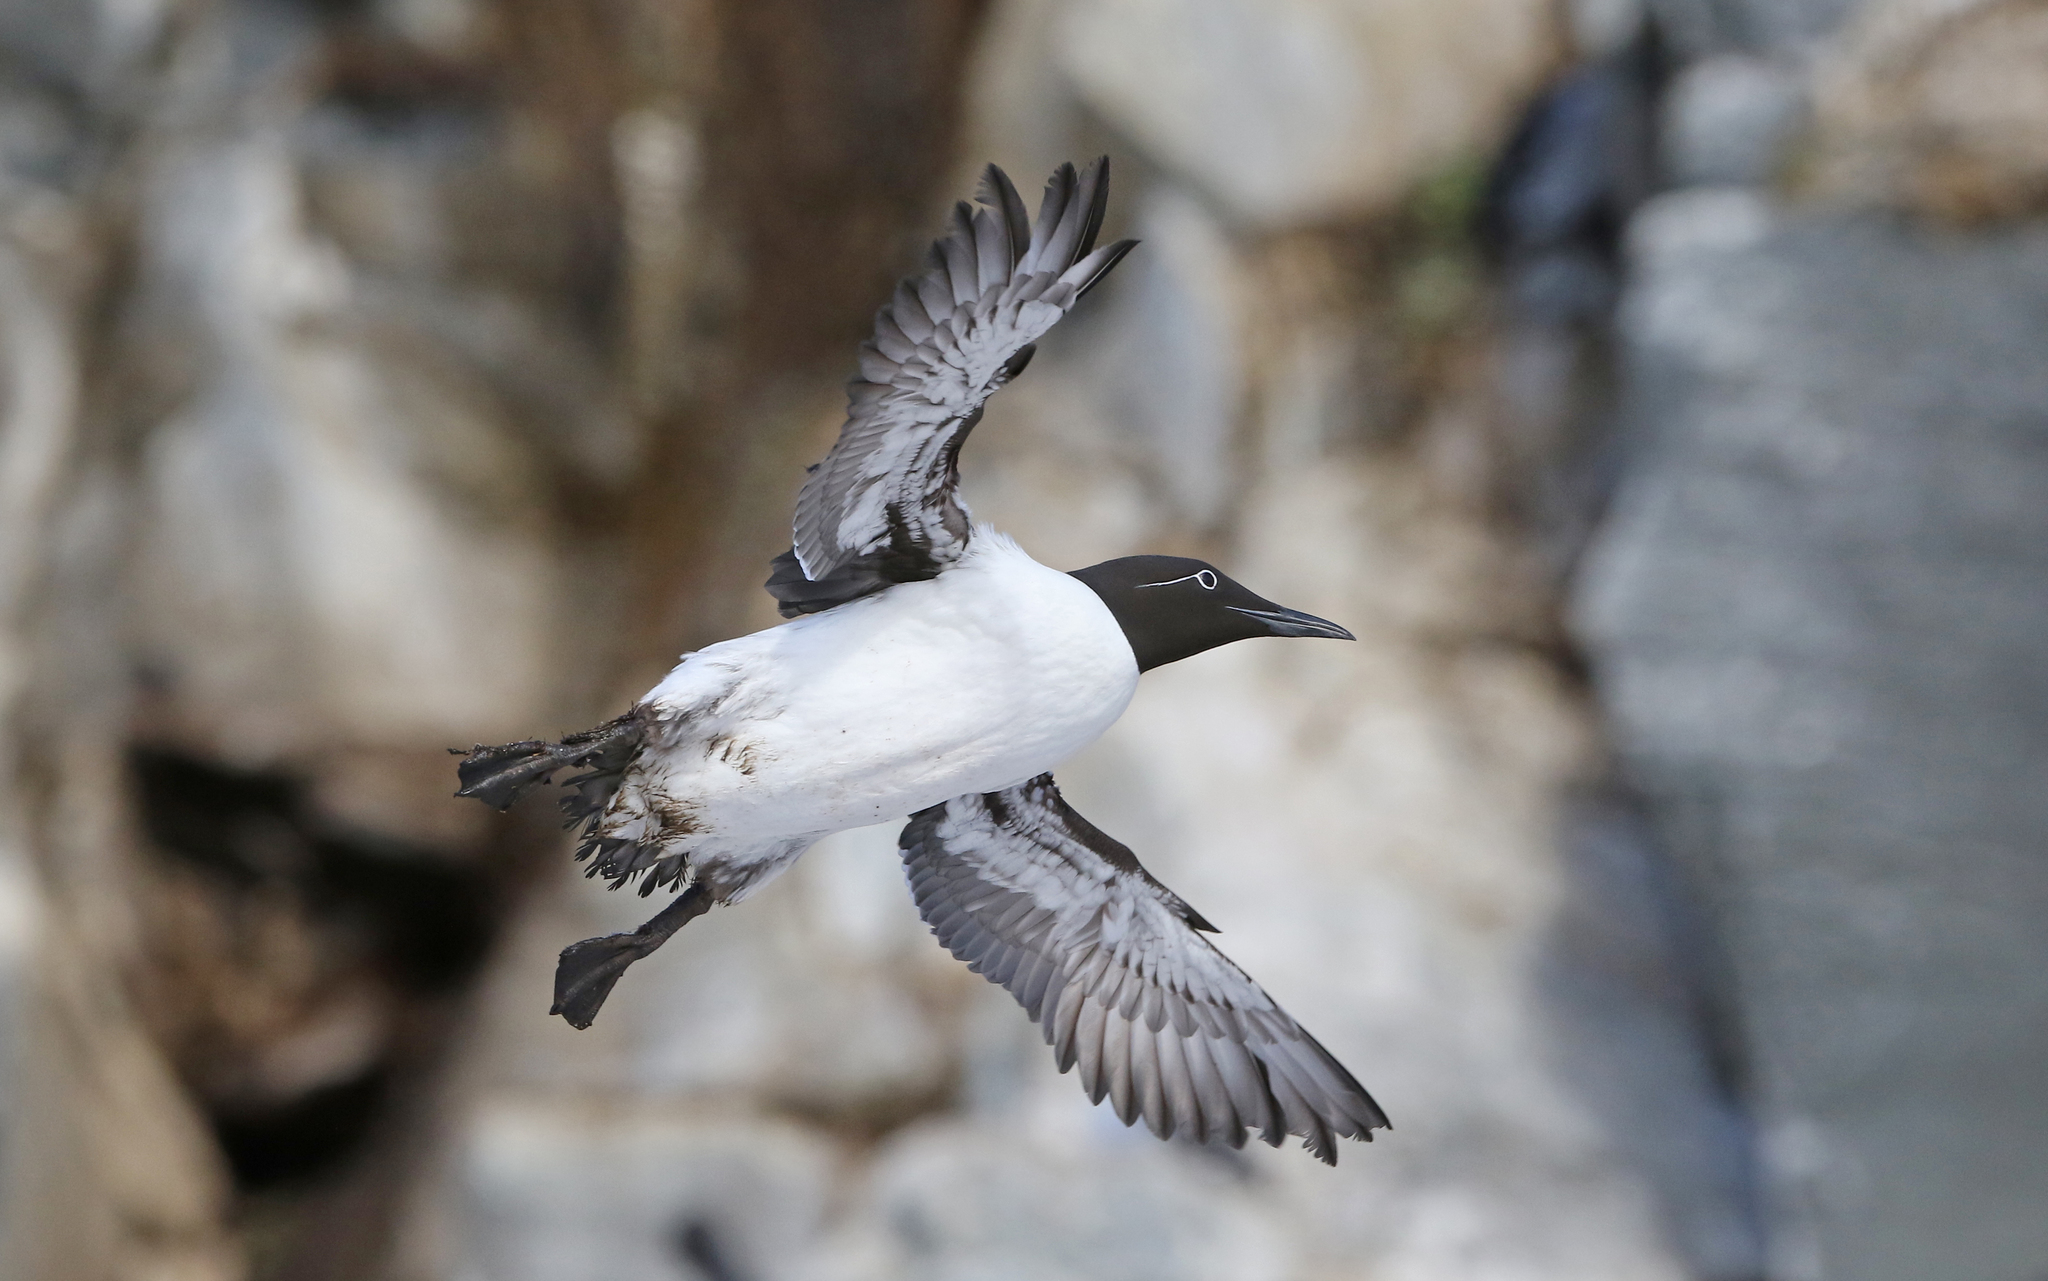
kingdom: Animalia
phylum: Chordata
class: Aves
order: Charadriiformes
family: Alcidae
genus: Uria
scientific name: Uria aalge
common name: Common murre
